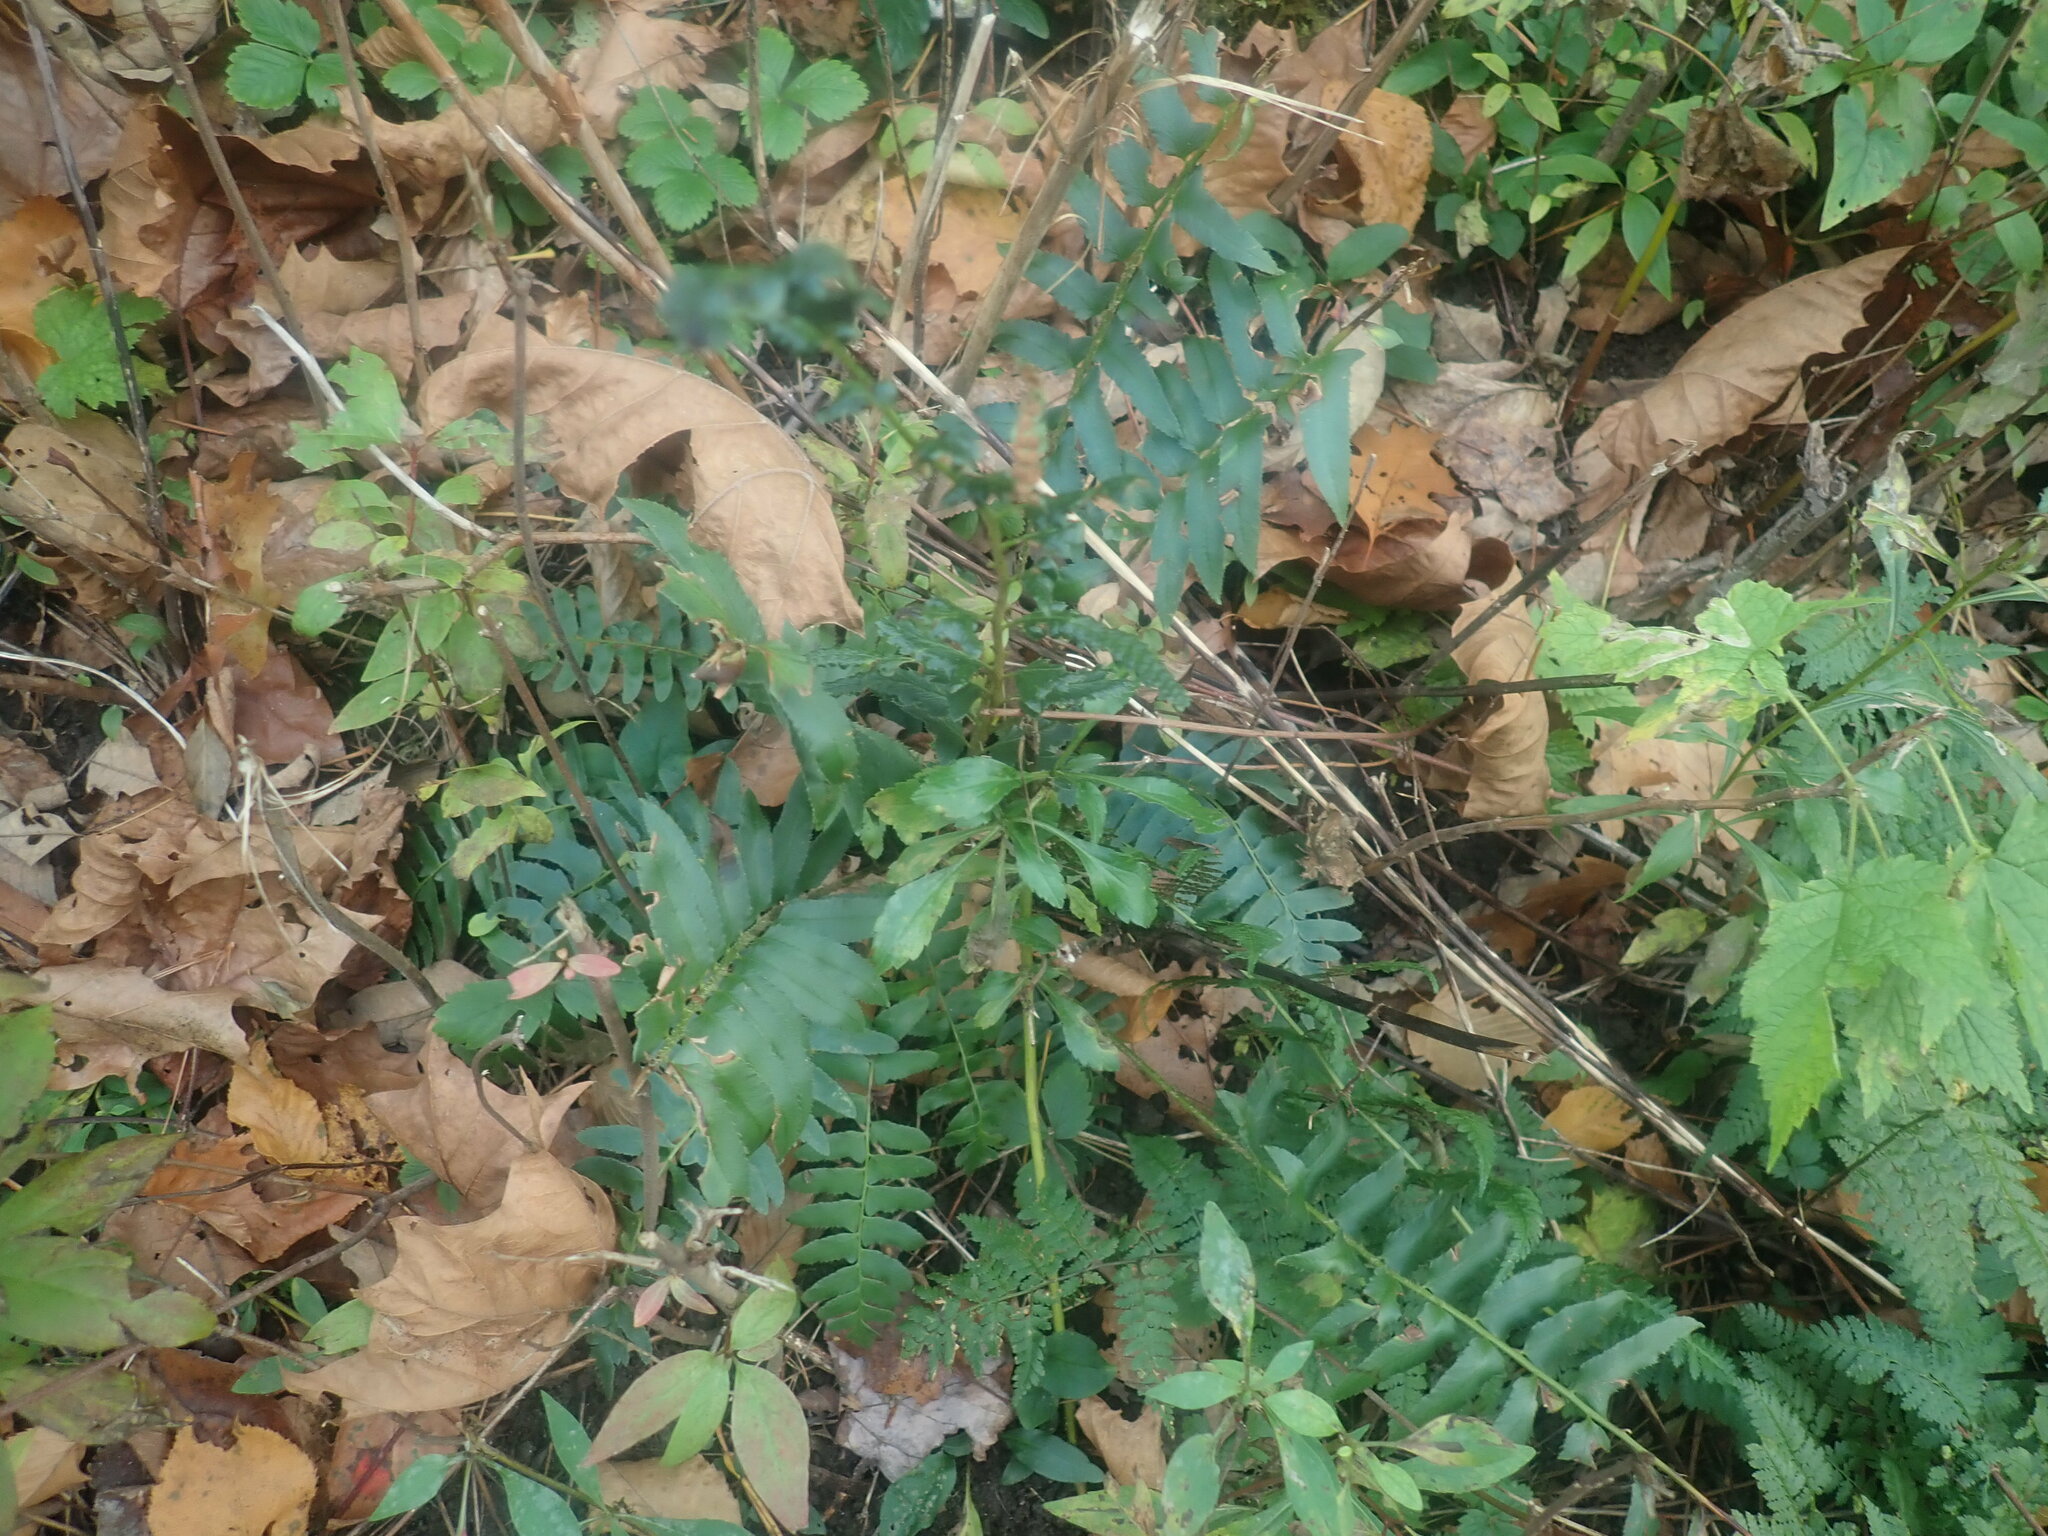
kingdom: Plantae
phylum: Tracheophyta
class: Polypodiopsida
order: Polypodiales
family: Dryopteridaceae
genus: Polystichum
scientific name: Polystichum acrostichoides
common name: Christmas fern
